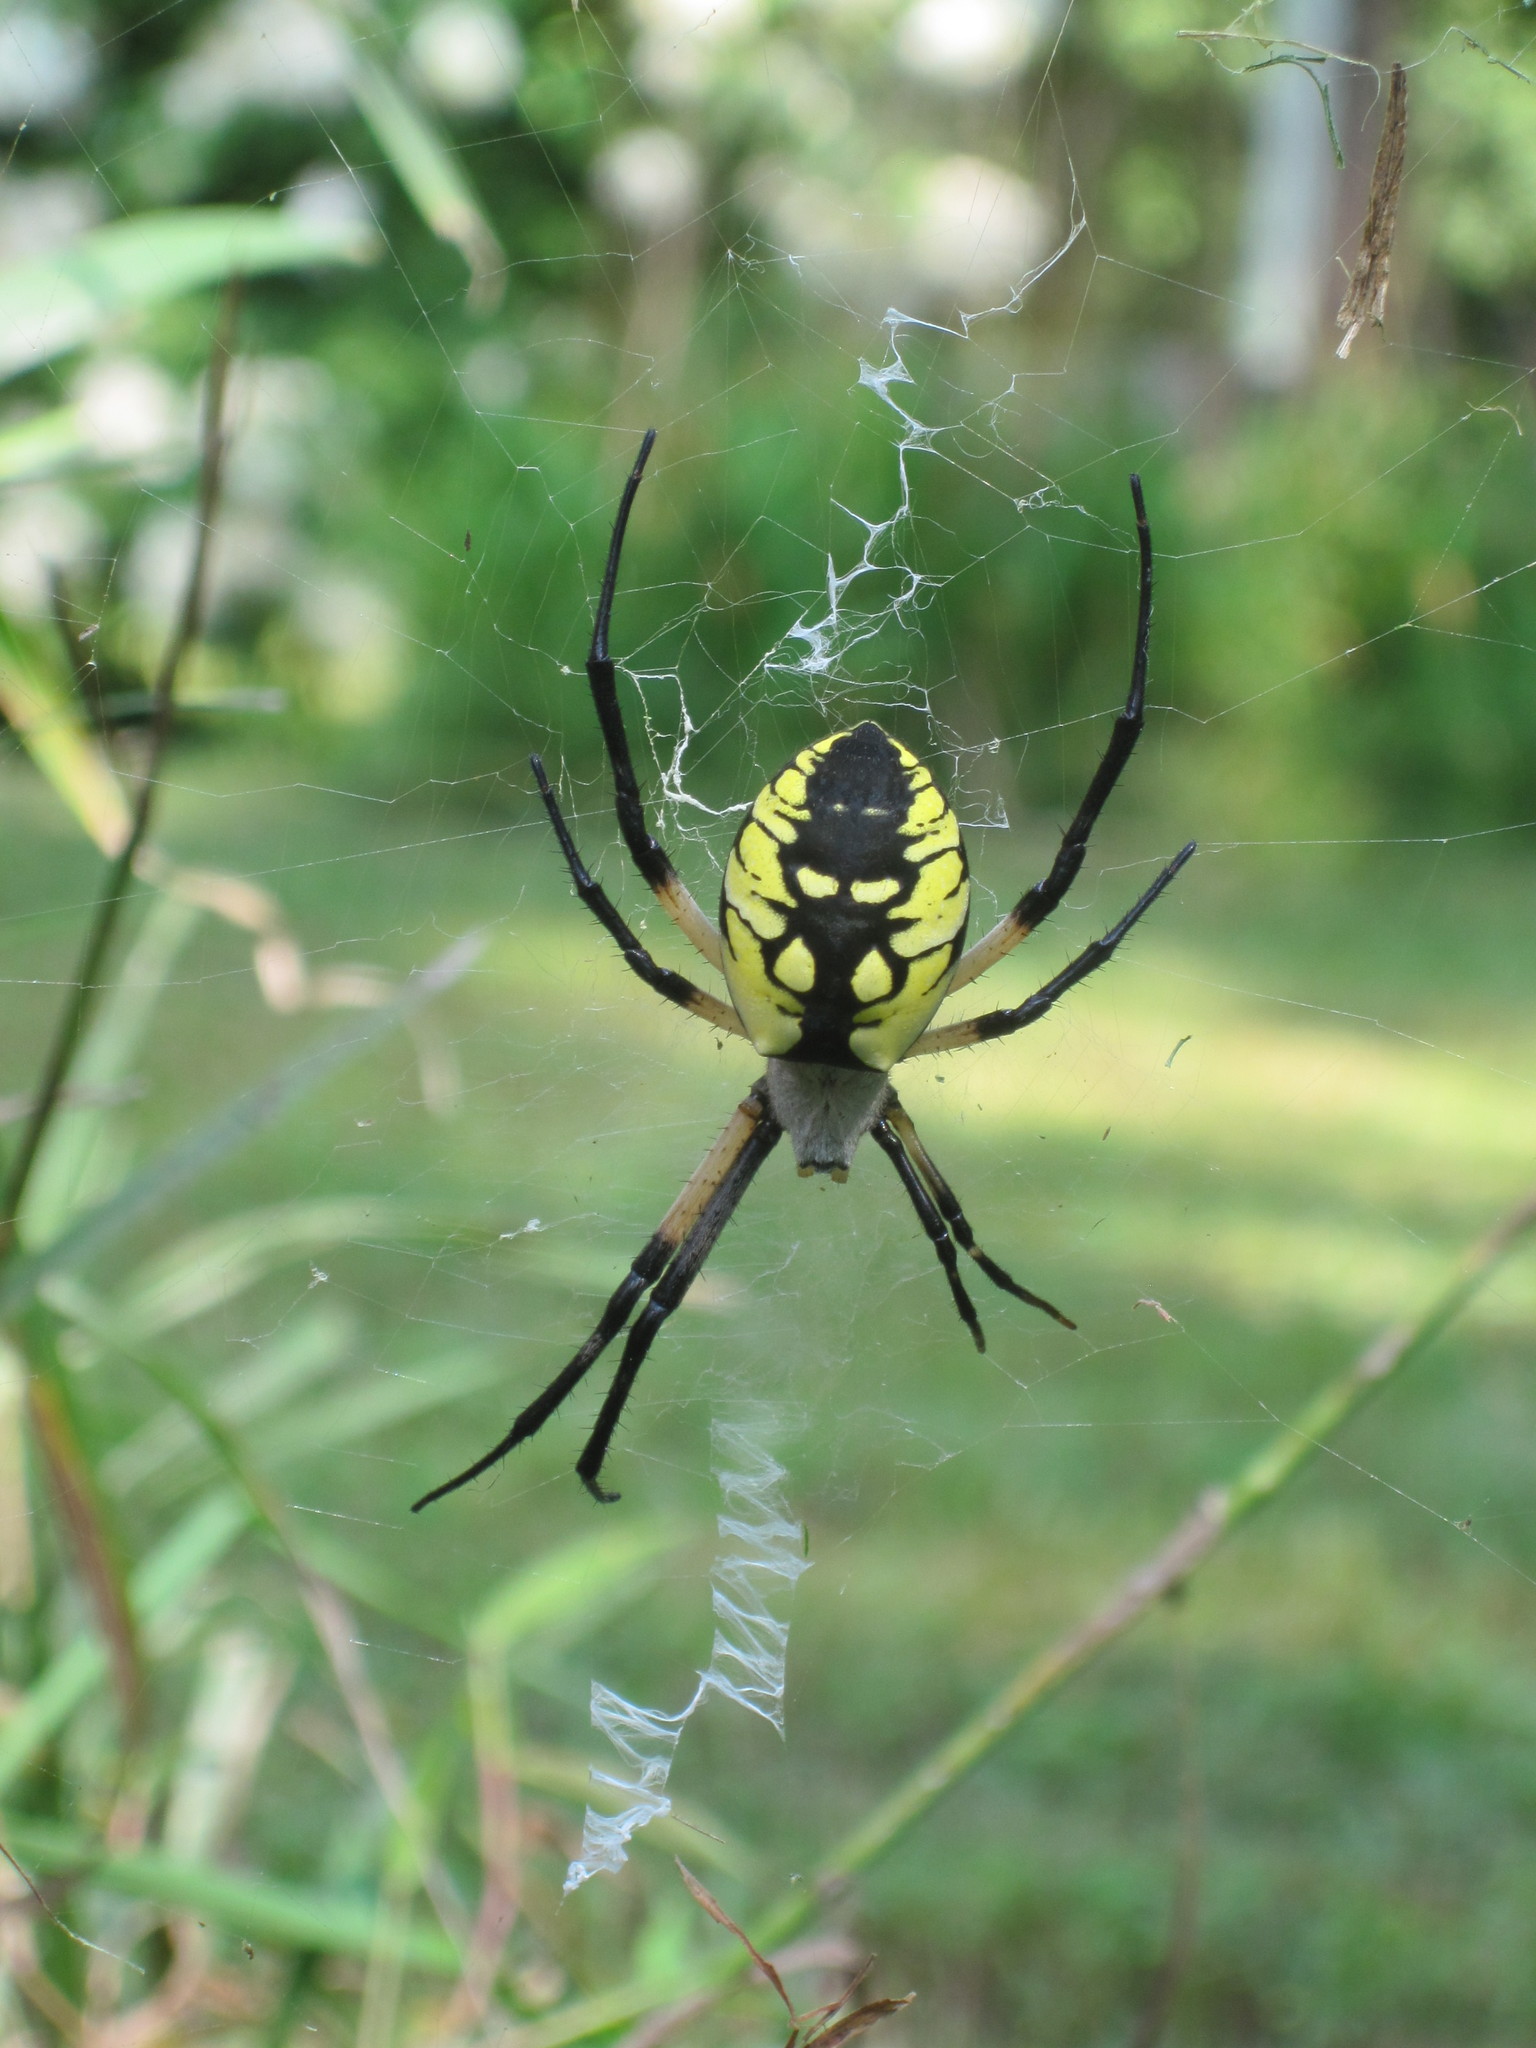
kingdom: Animalia
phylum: Arthropoda
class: Arachnida
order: Araneae
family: Araneidae
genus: Argiope
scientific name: Argiope aurantia
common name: Orb weavers
